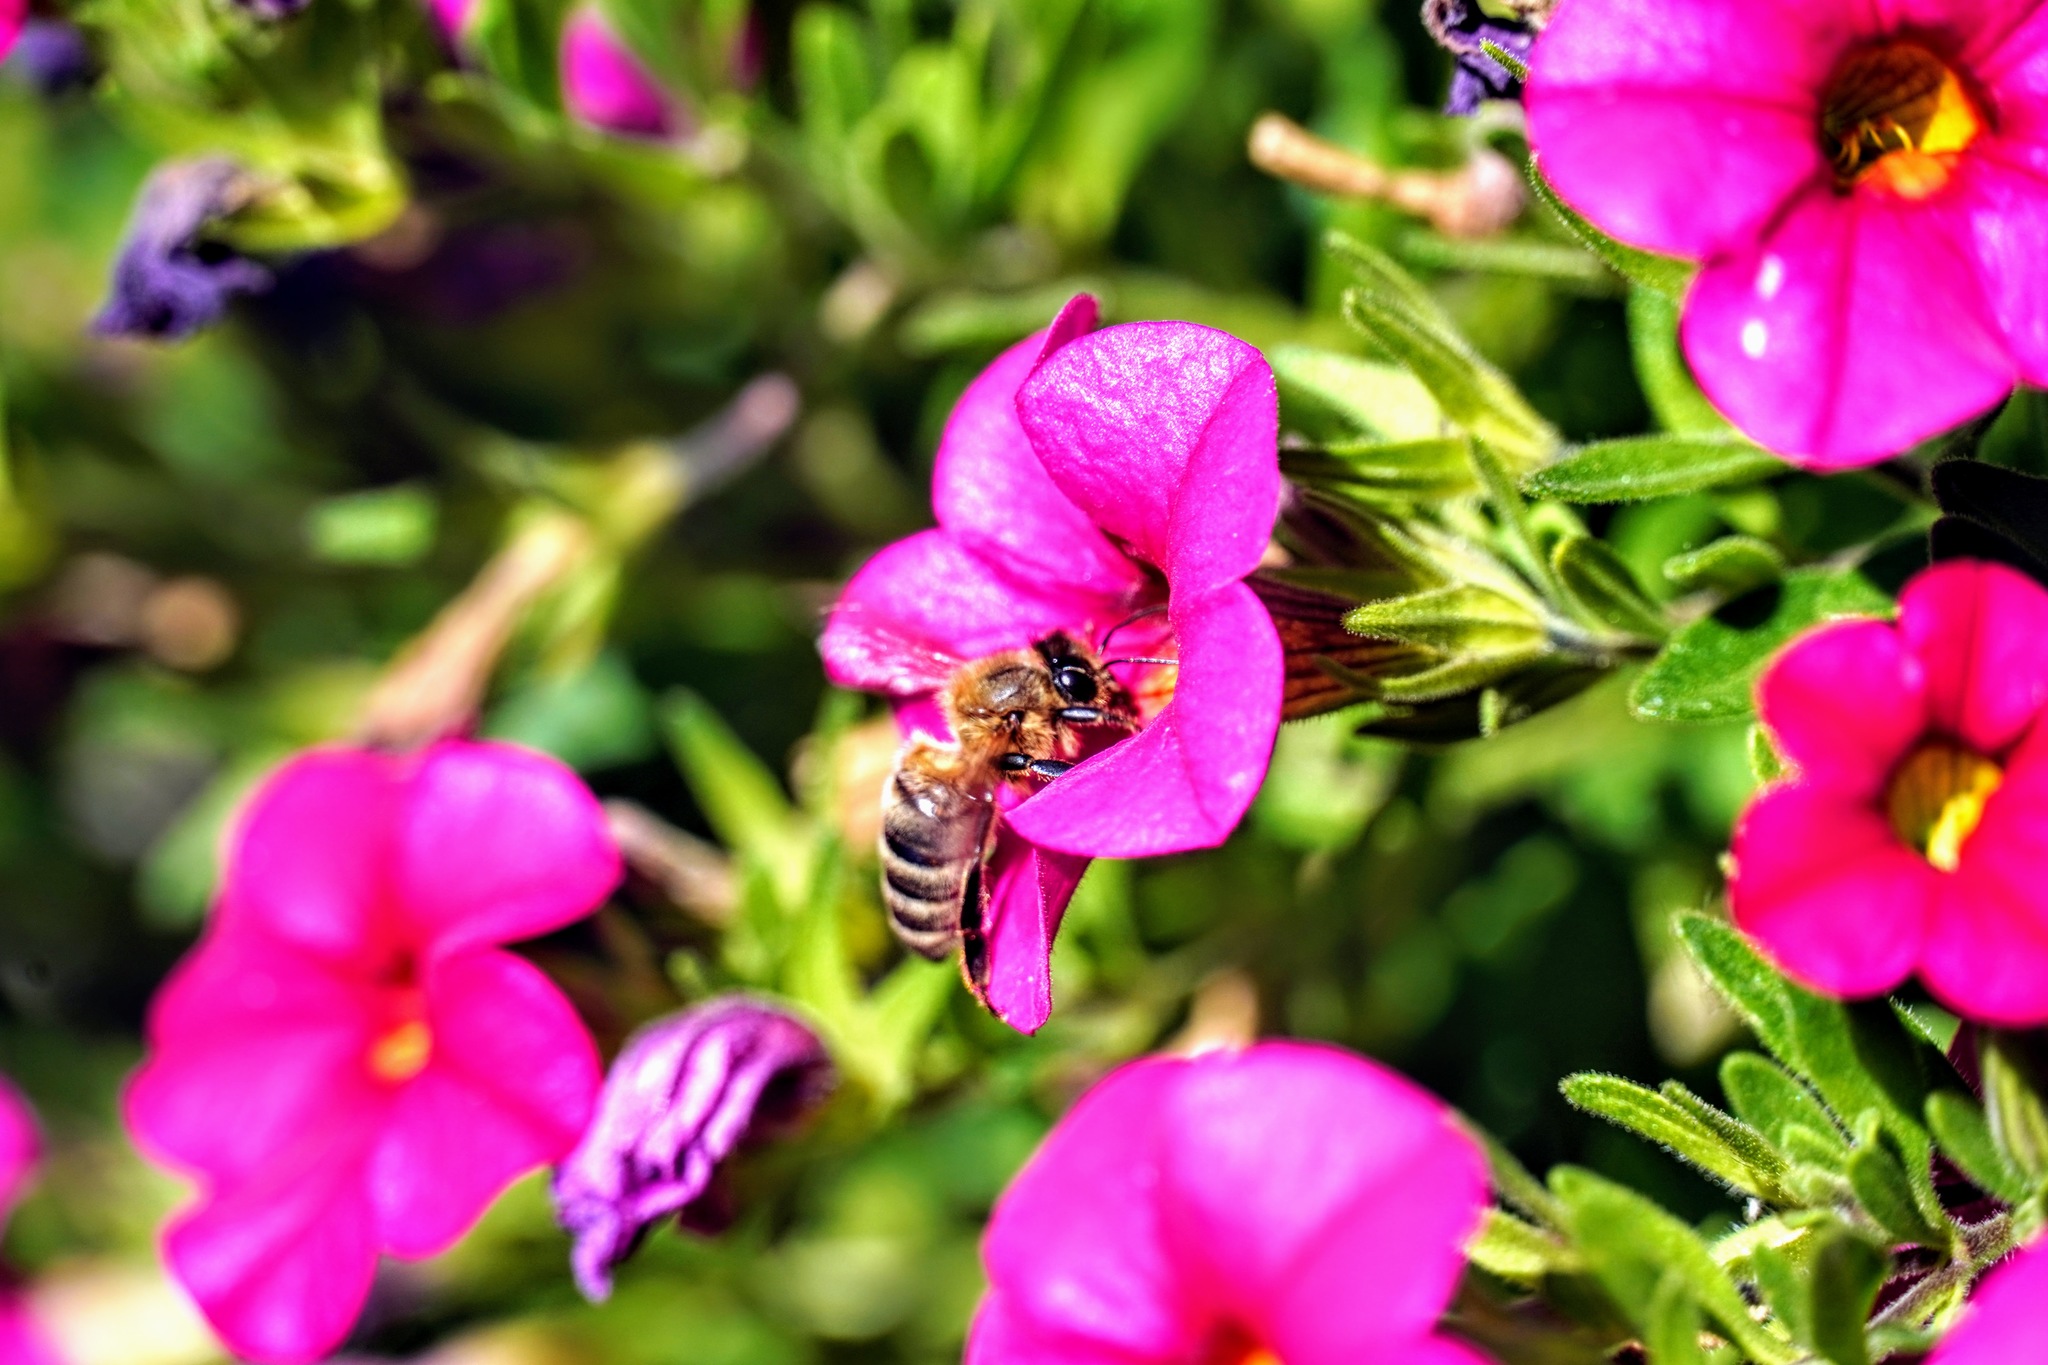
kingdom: Animalia
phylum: Arthropoda
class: Insecta
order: Hymenoptera
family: Apidae
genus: Apis
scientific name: Apis mellifera
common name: Honey bee
